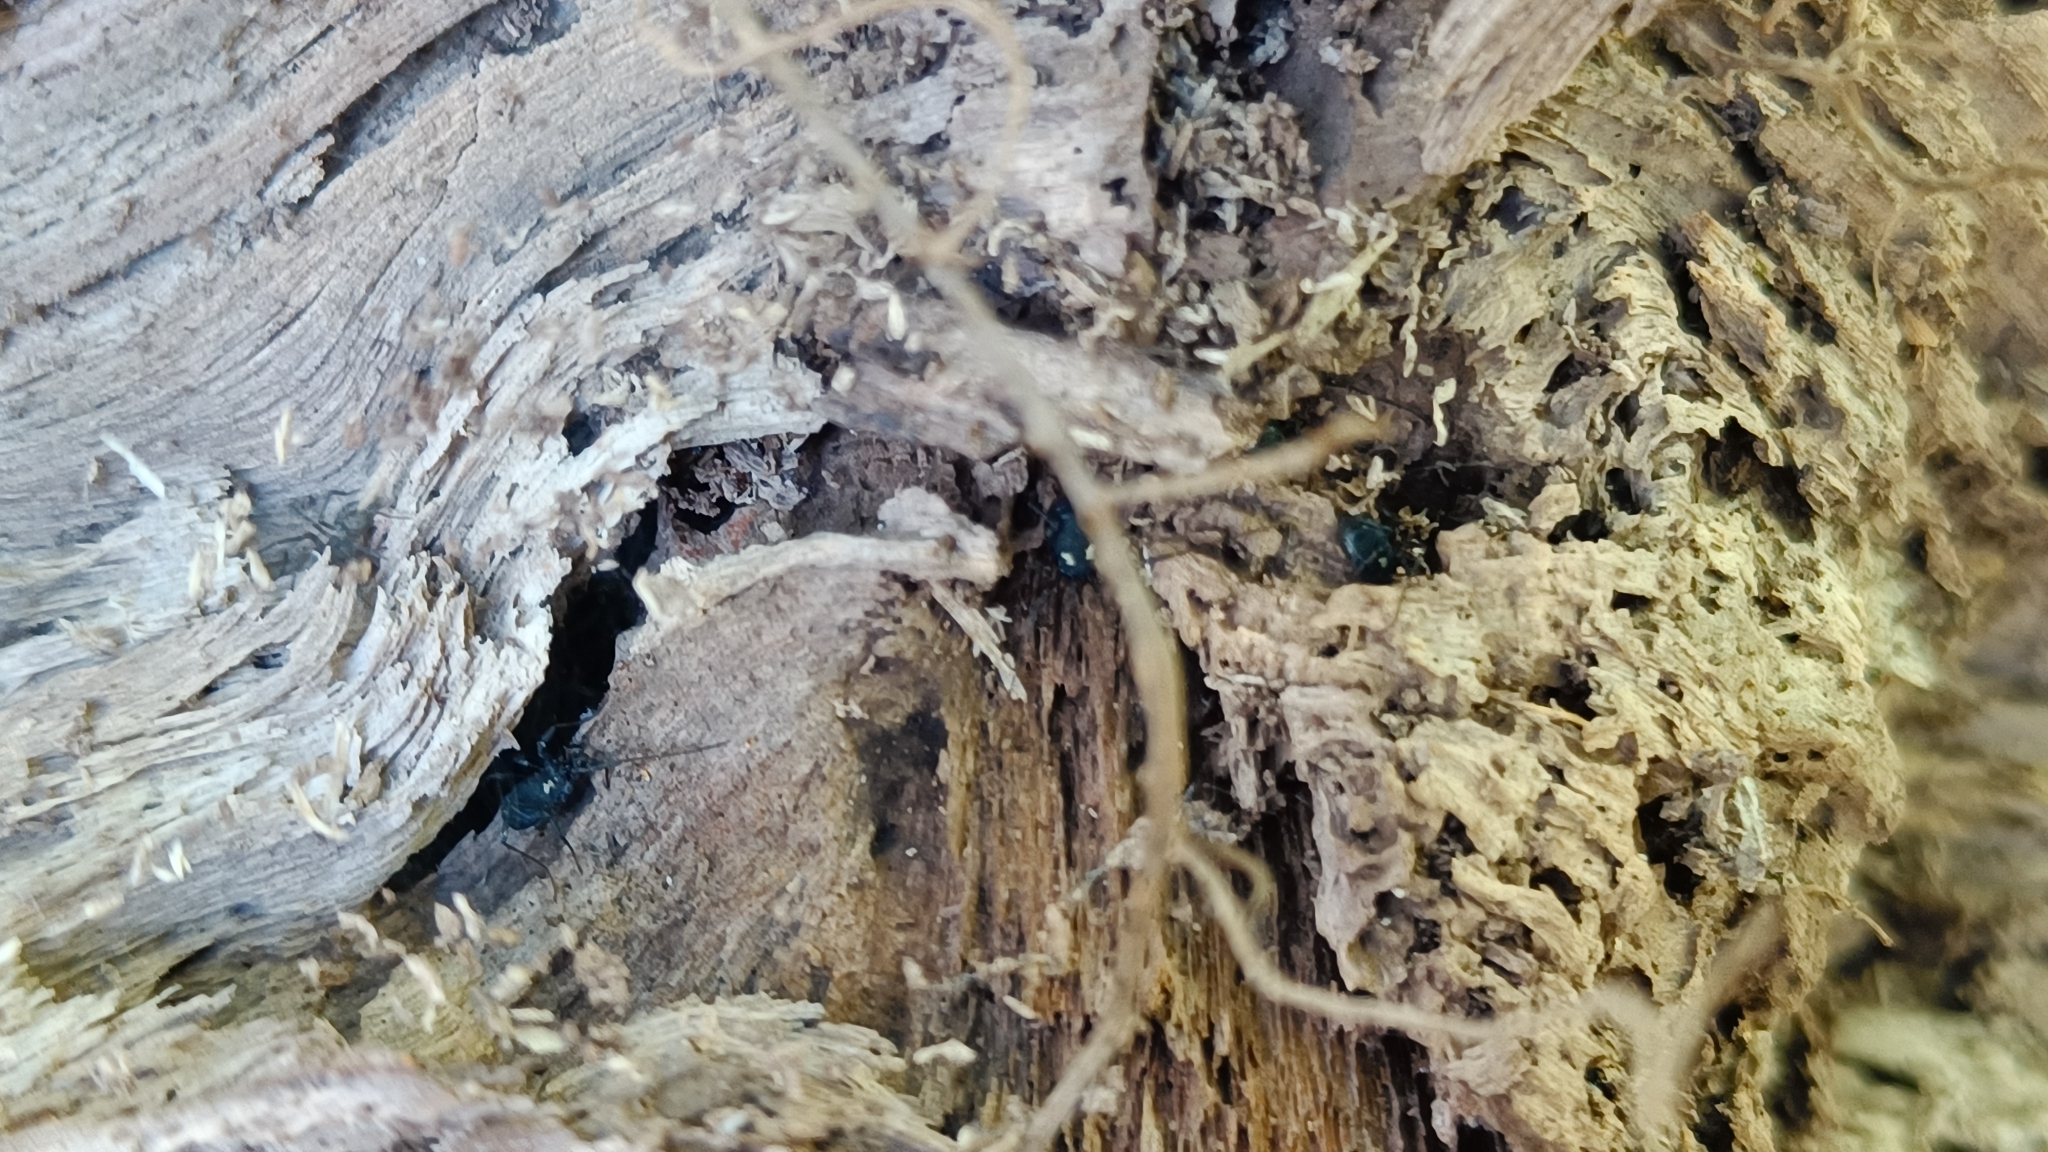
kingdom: Animalia
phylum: Arthropoda
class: Arachnida
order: Opiliones
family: Nemastomatidae
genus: Nemastoma
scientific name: Nemastoma bimaculatum
